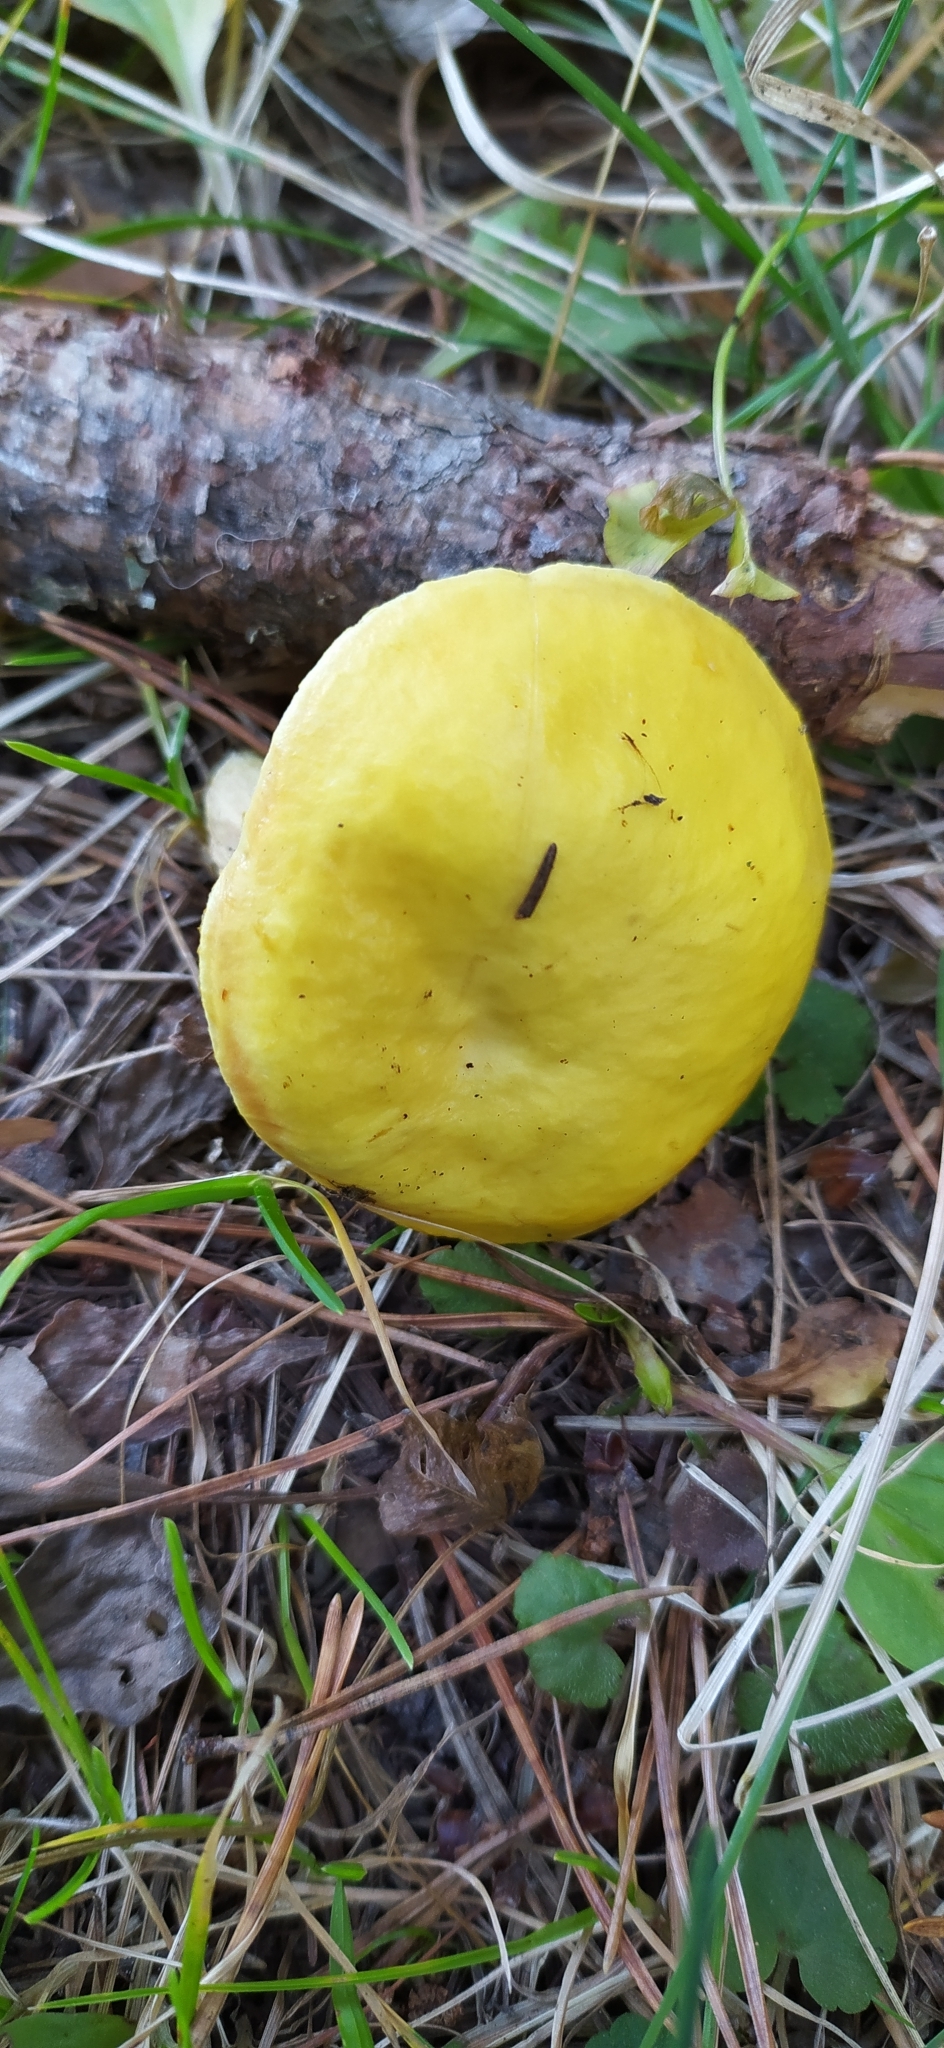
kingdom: Fungi
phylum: Basidiomycota
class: Agaricomycetes
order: Boletales
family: Suillaceae
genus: Suillus
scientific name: Suillus grevillei
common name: Larch bolete
